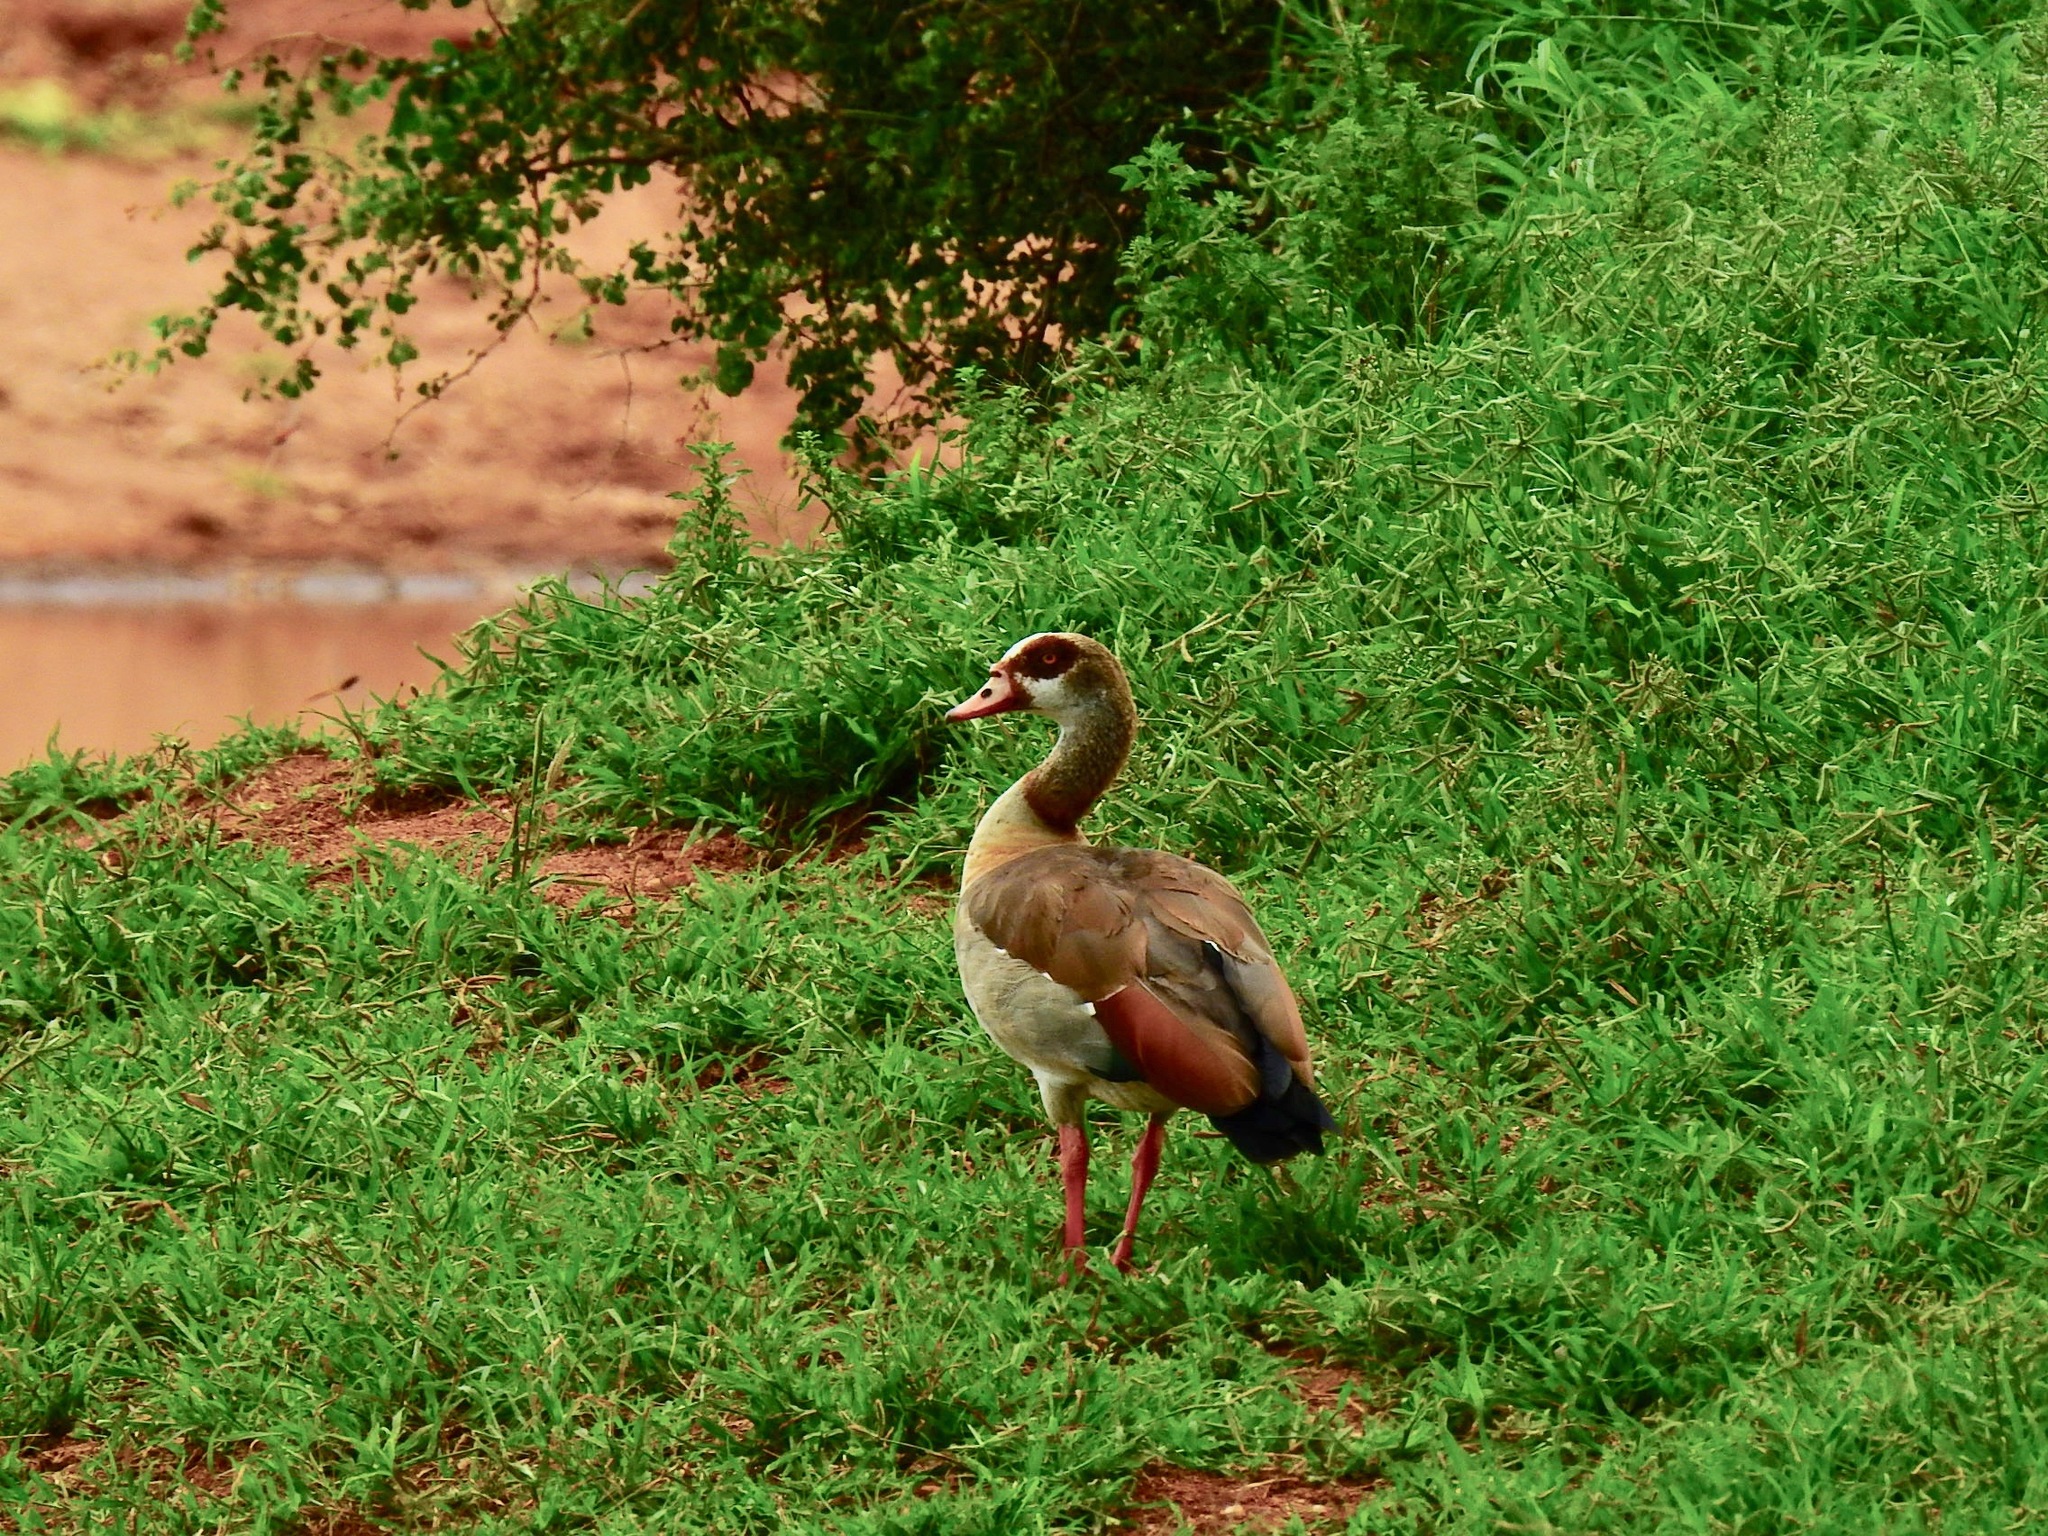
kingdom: Animalia
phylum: Chordata
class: Aves
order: Anseriformes
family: Anatidae
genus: Alopochen
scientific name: Alopochen aegyptiaca
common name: Egyptian goose
